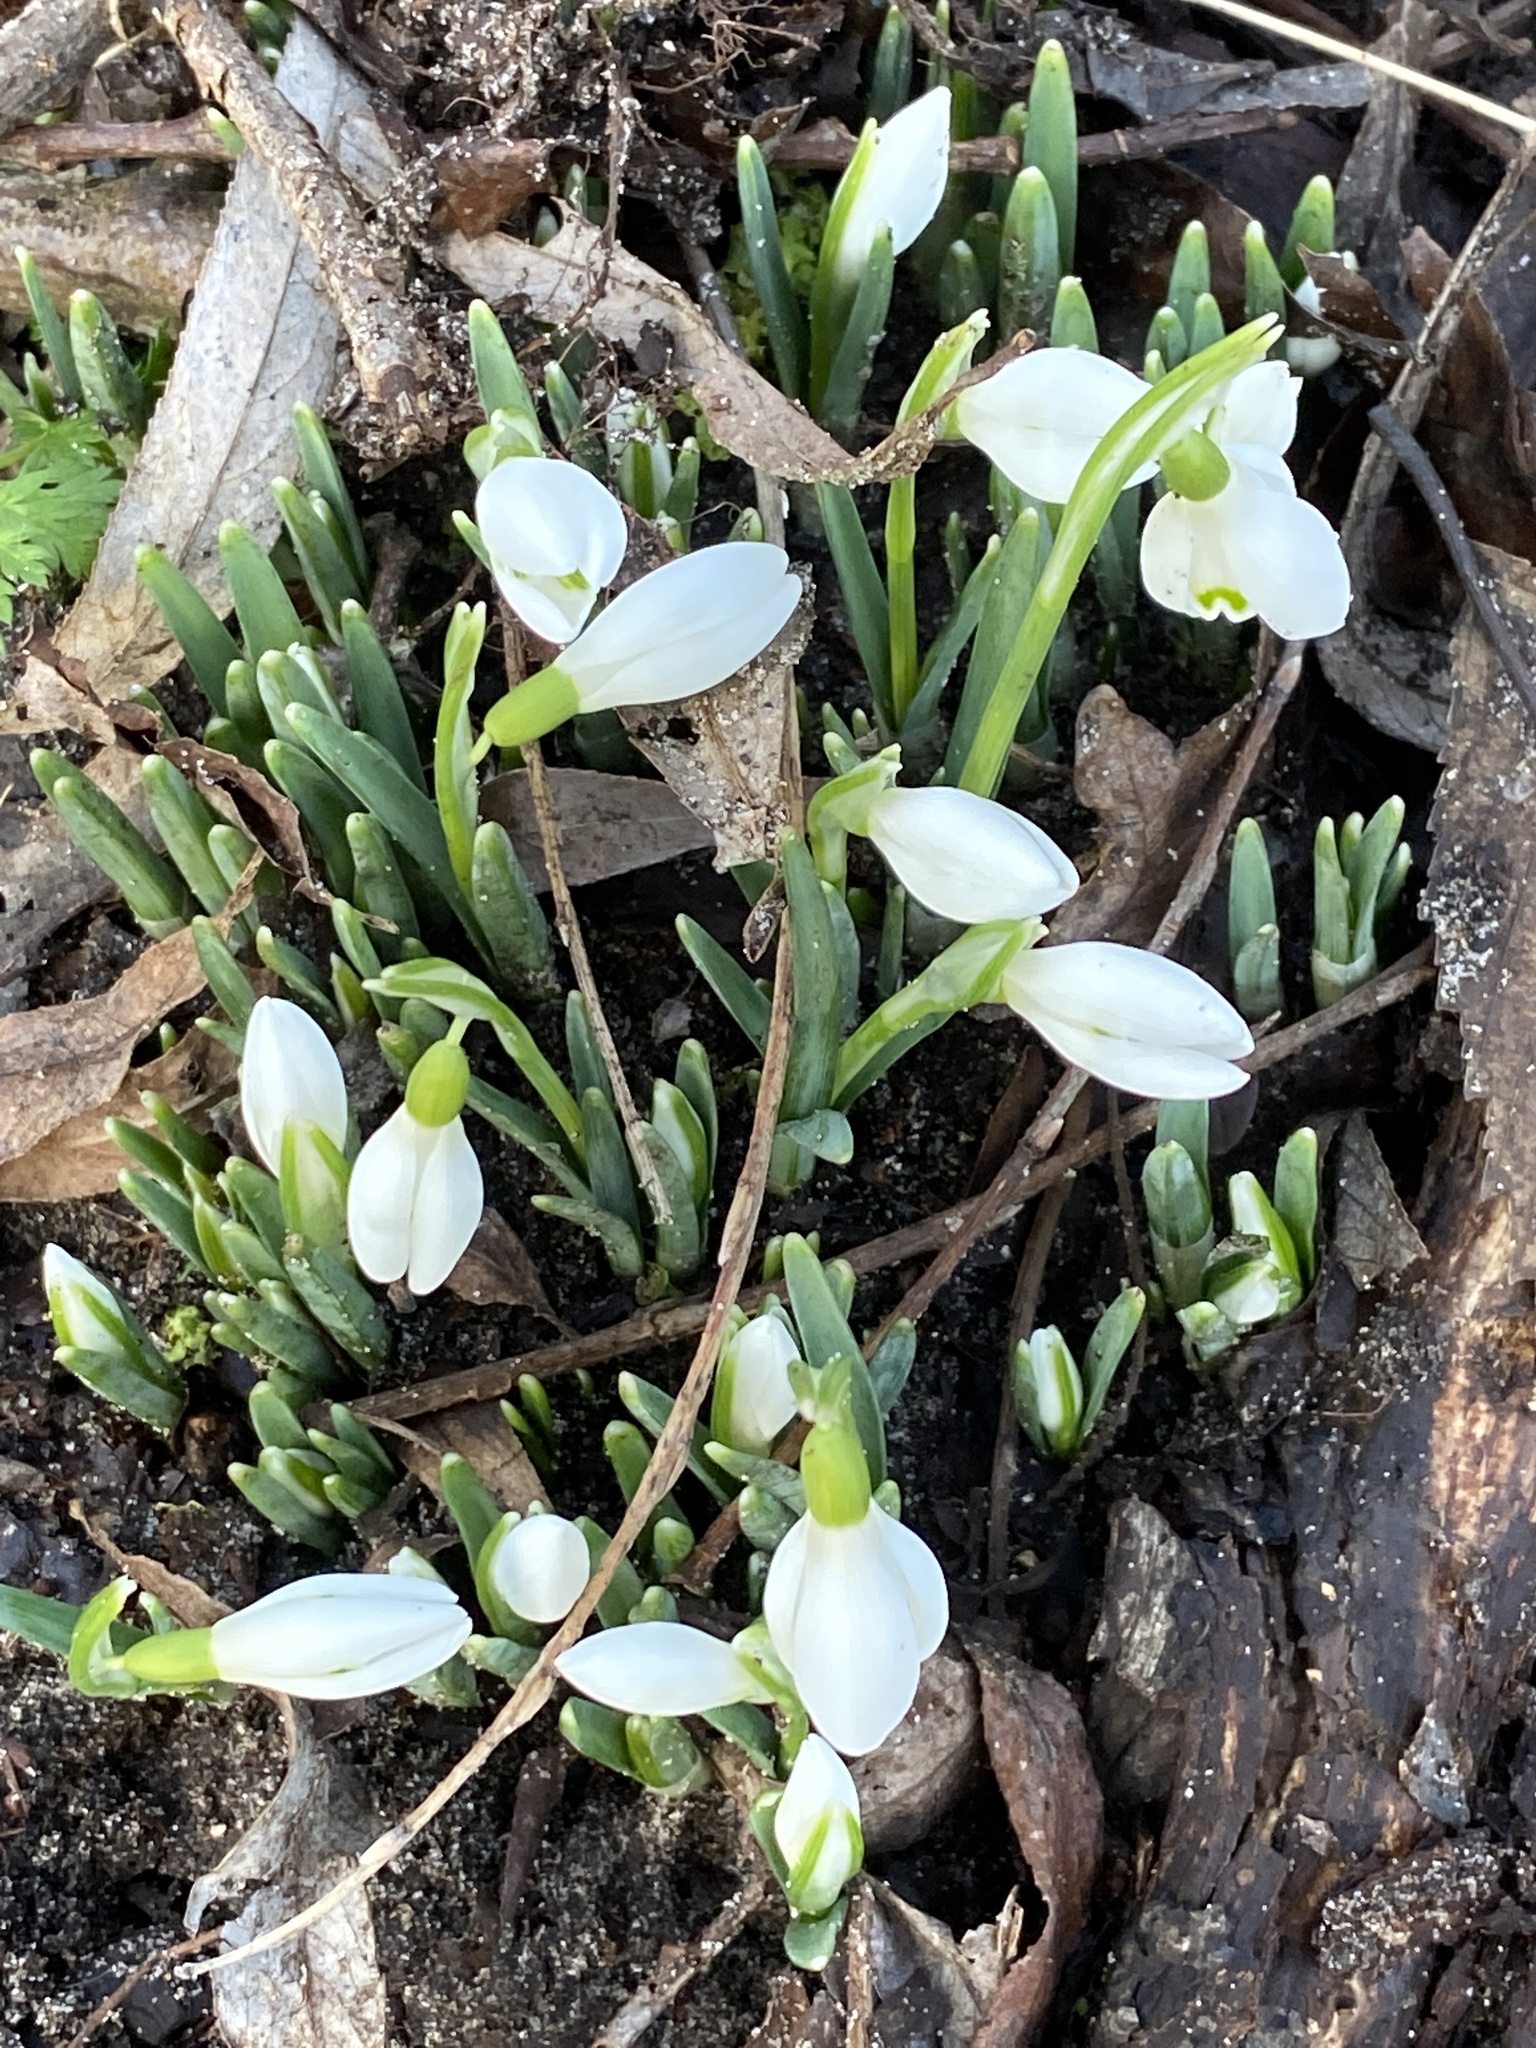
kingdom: Plantae
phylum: Tracheophyta
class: Liliopsida
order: Asparagales
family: Amaryllidaceae
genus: Galanthus
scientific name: Galanthus nivalis
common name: Snowdrop
